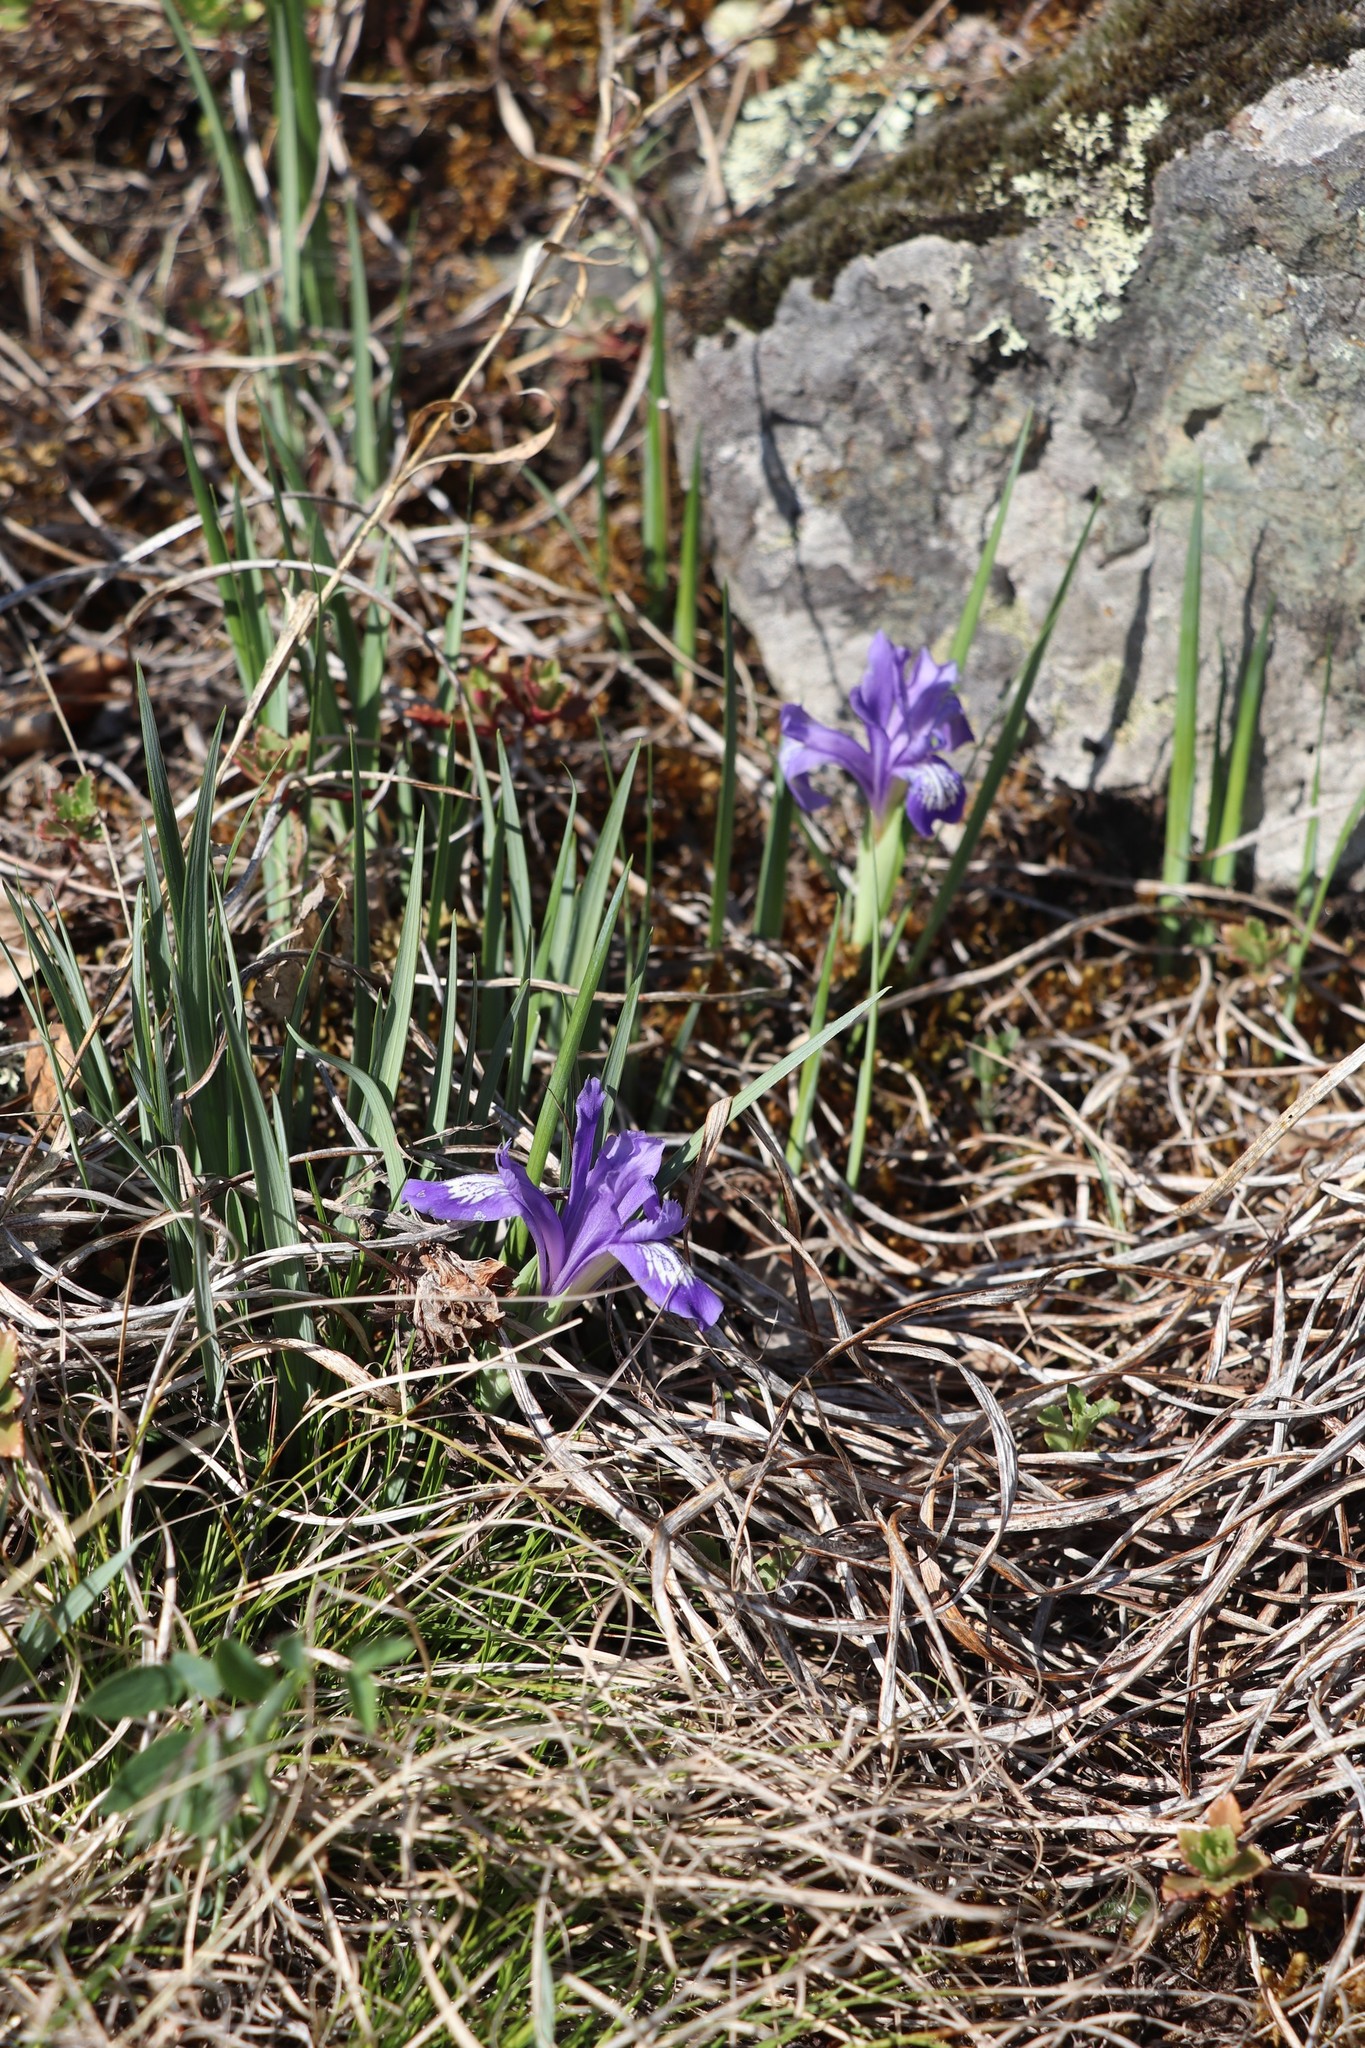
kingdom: Plantae
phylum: Tracheophyta
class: Liliopsida
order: Asparagales
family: Iridaceae
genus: Iris
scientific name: Iris ruthenica
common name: Purple-bract iris
